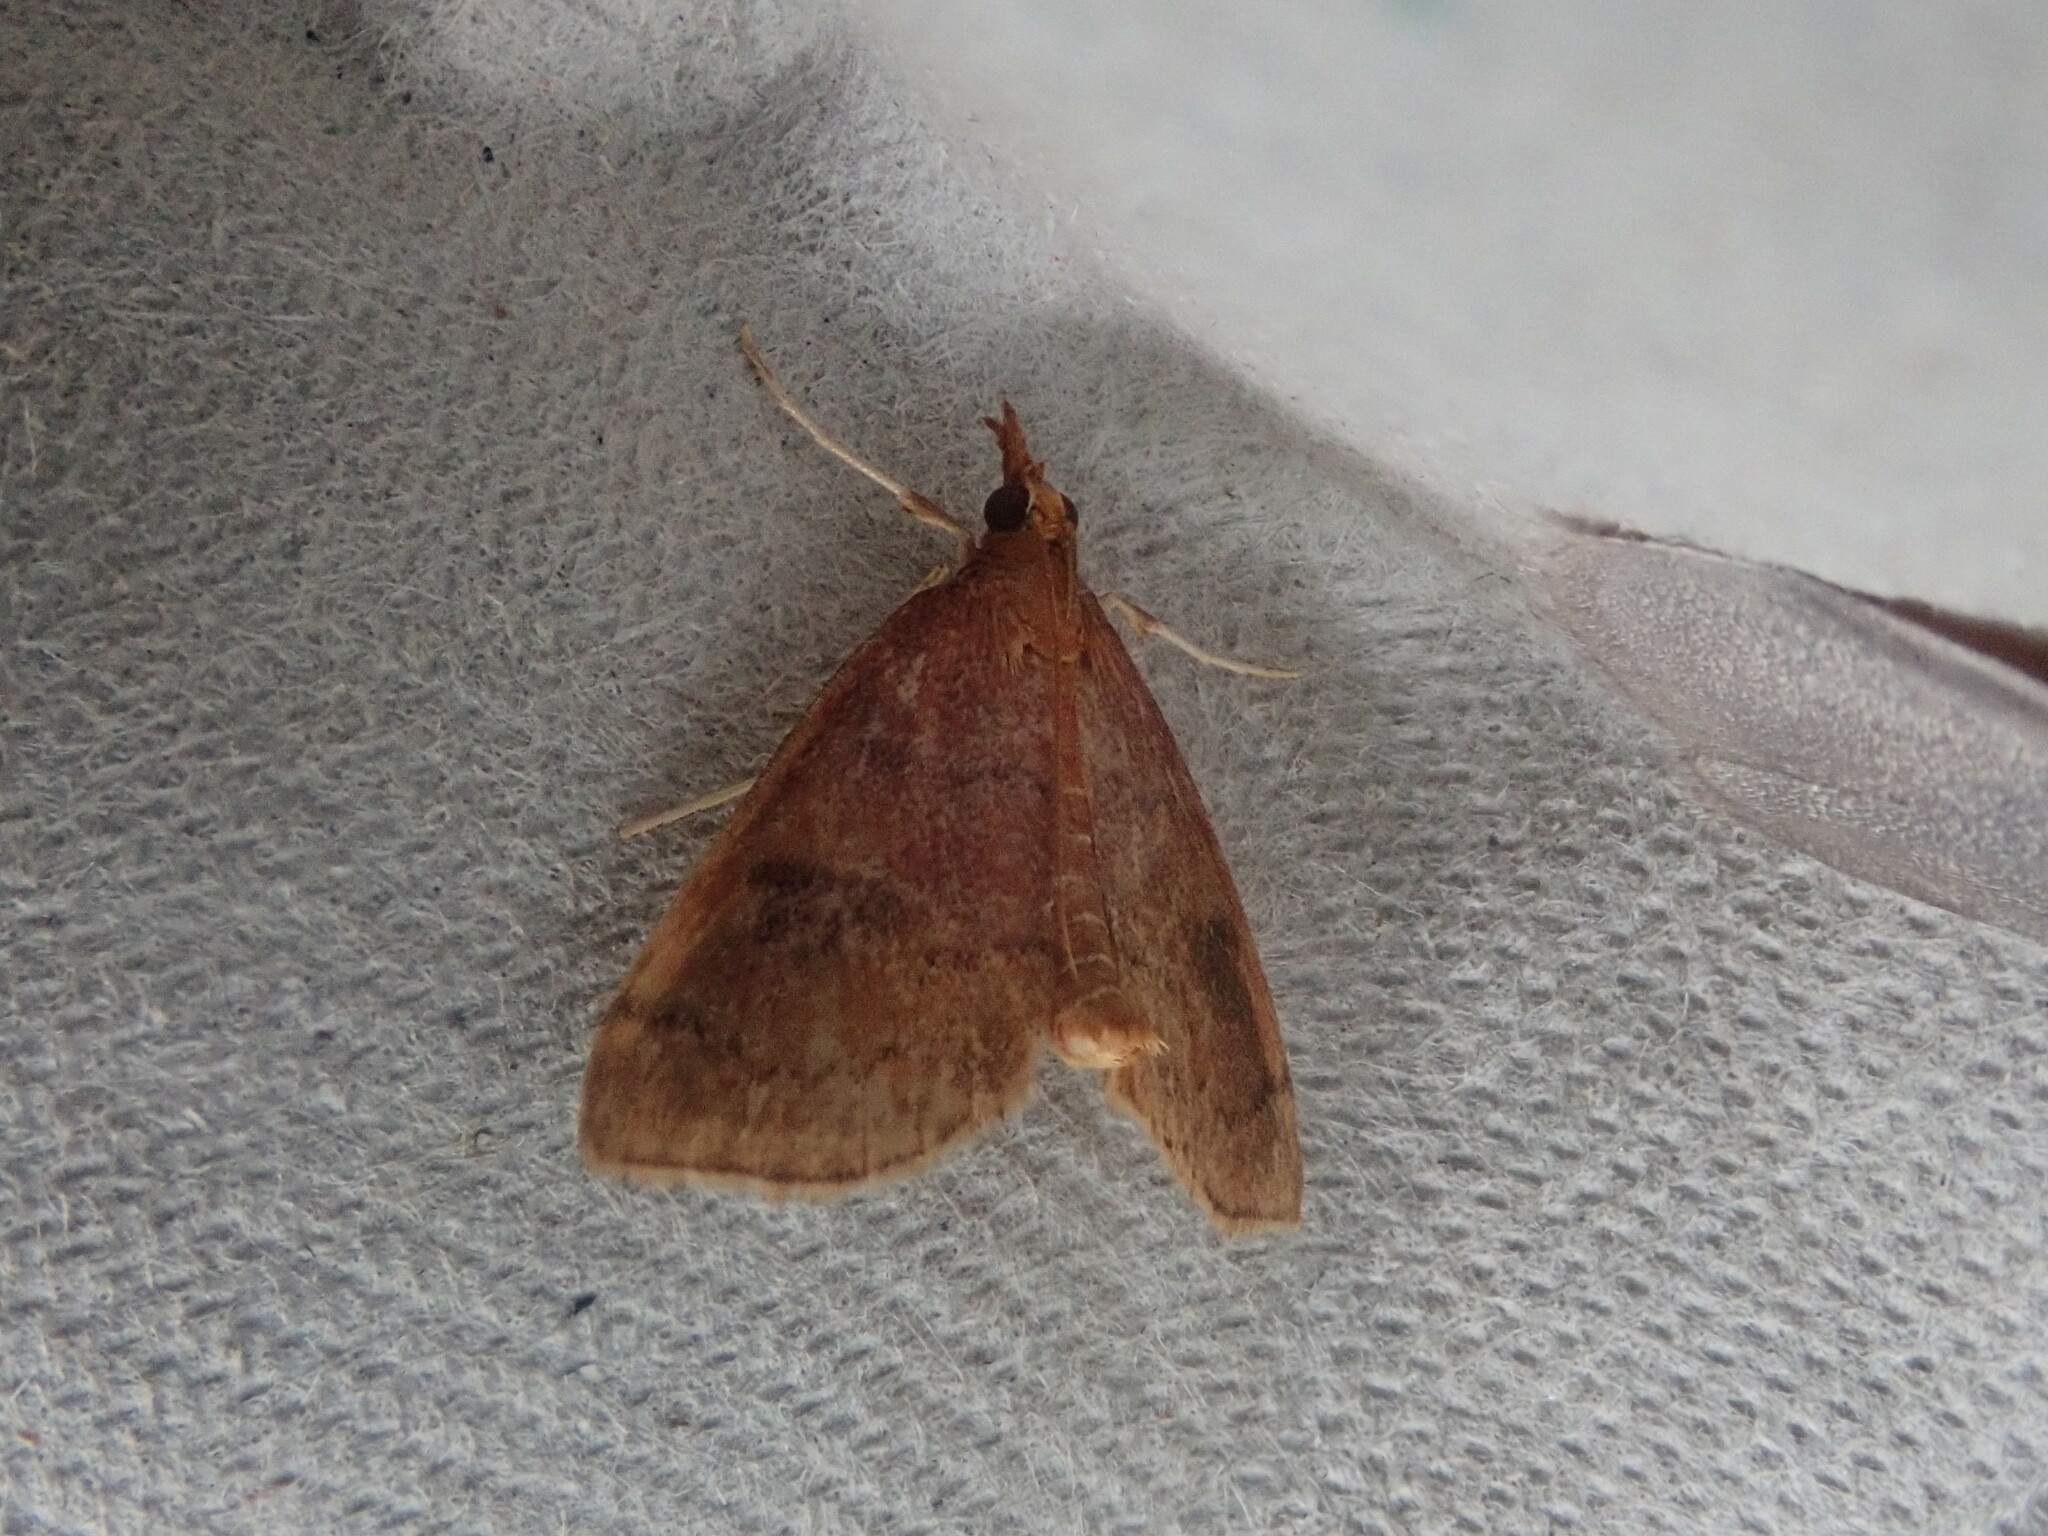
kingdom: Animalia
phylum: Arthropoda
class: Insecta
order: Lepidoptera
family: Crambidae
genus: Fumibotys
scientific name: Fumibotys fumalis
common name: Mint root borer moth
